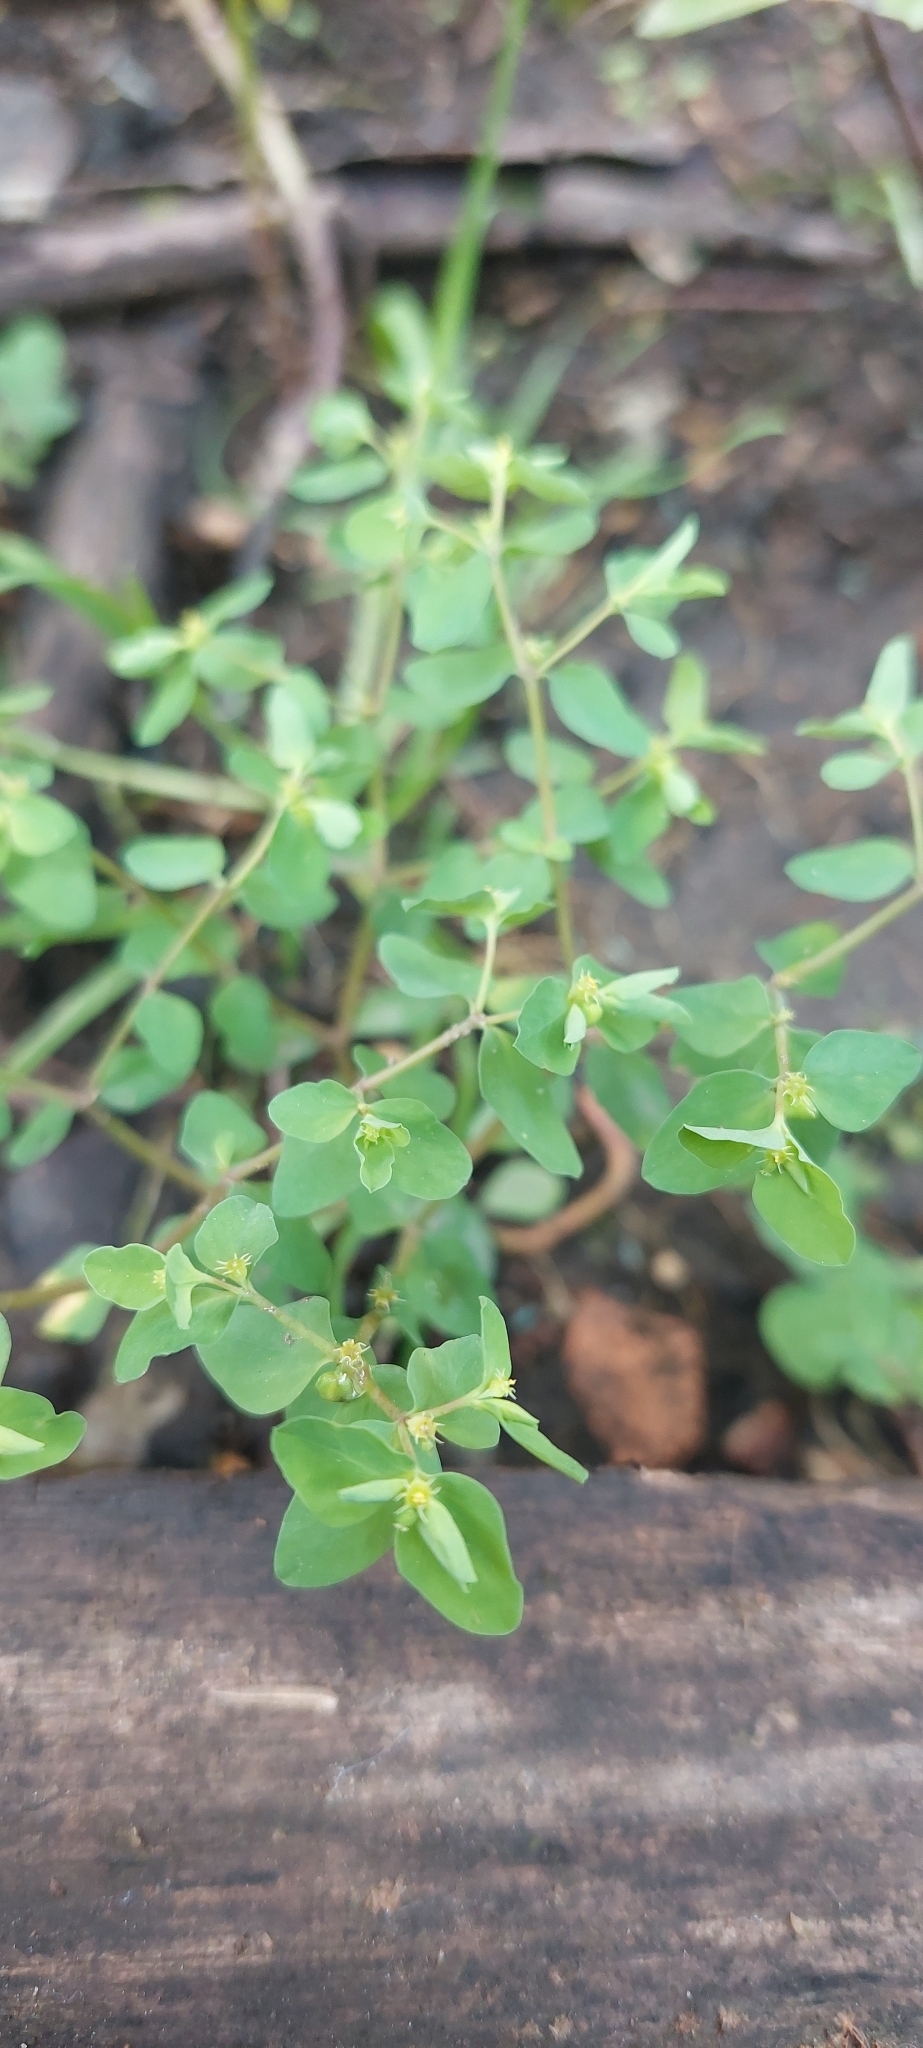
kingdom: Plantae
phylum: Tracheophyta
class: Magnoliopsida
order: Malpighiales
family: Euphorbiaceae
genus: Euphorbia
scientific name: Euphorbia peplus
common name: Petty spurge
